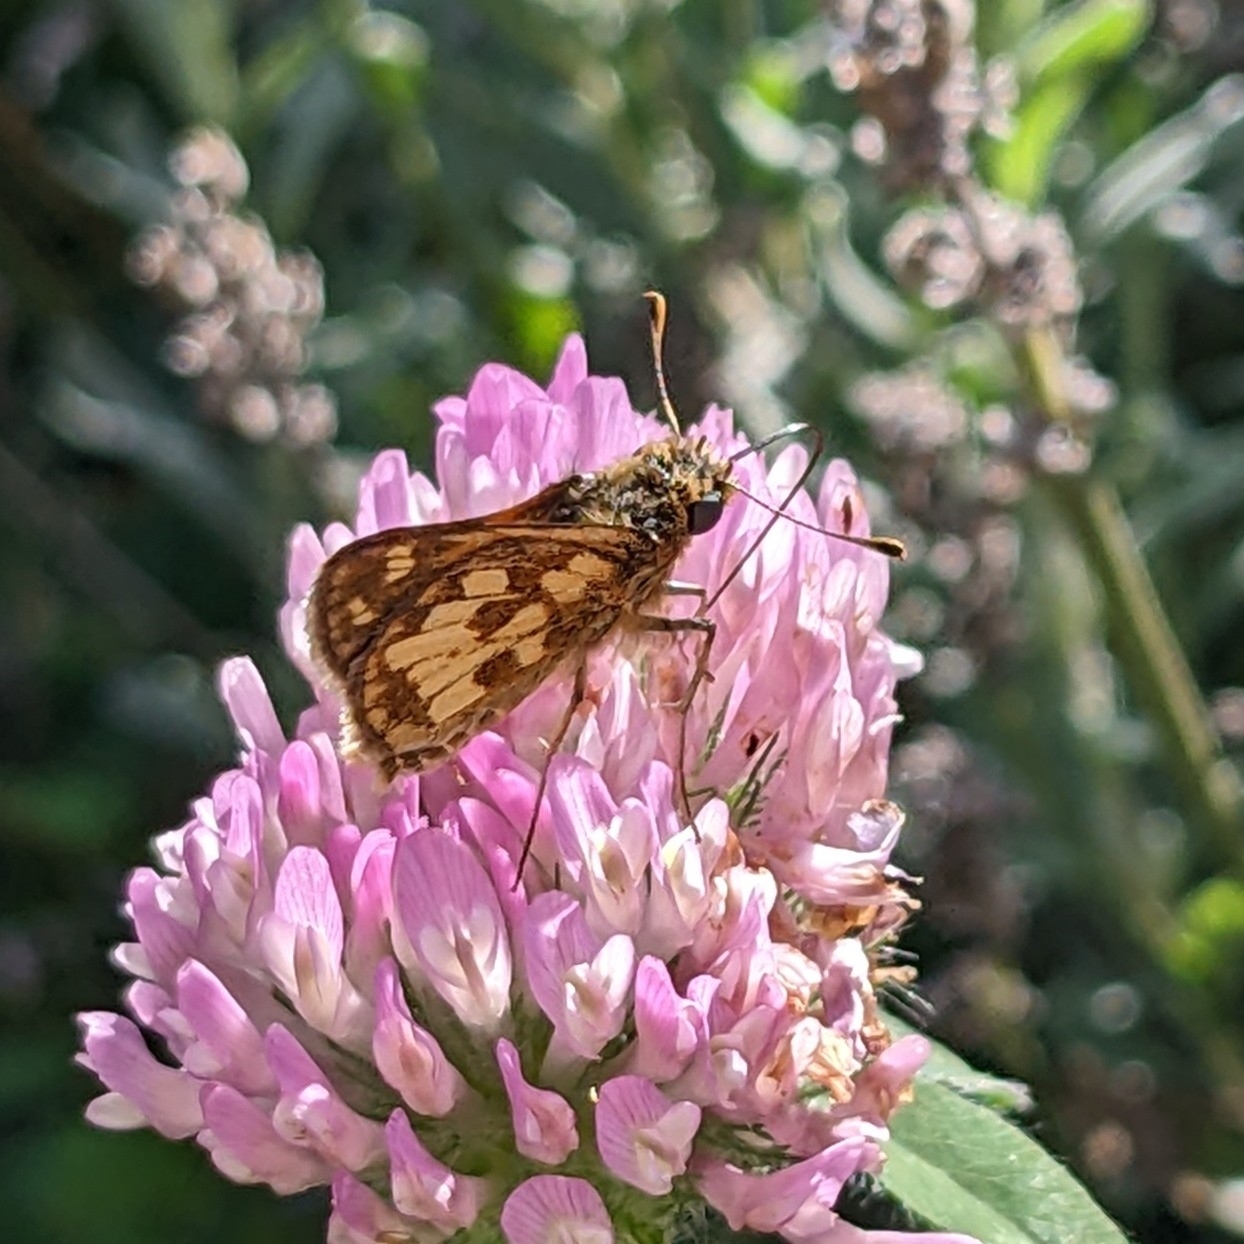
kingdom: Animalia
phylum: Arthropoda
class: Insecta
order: Lepidoptera
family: Hesperiidae
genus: Polites
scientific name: Polites coras
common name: Peck's skipper
